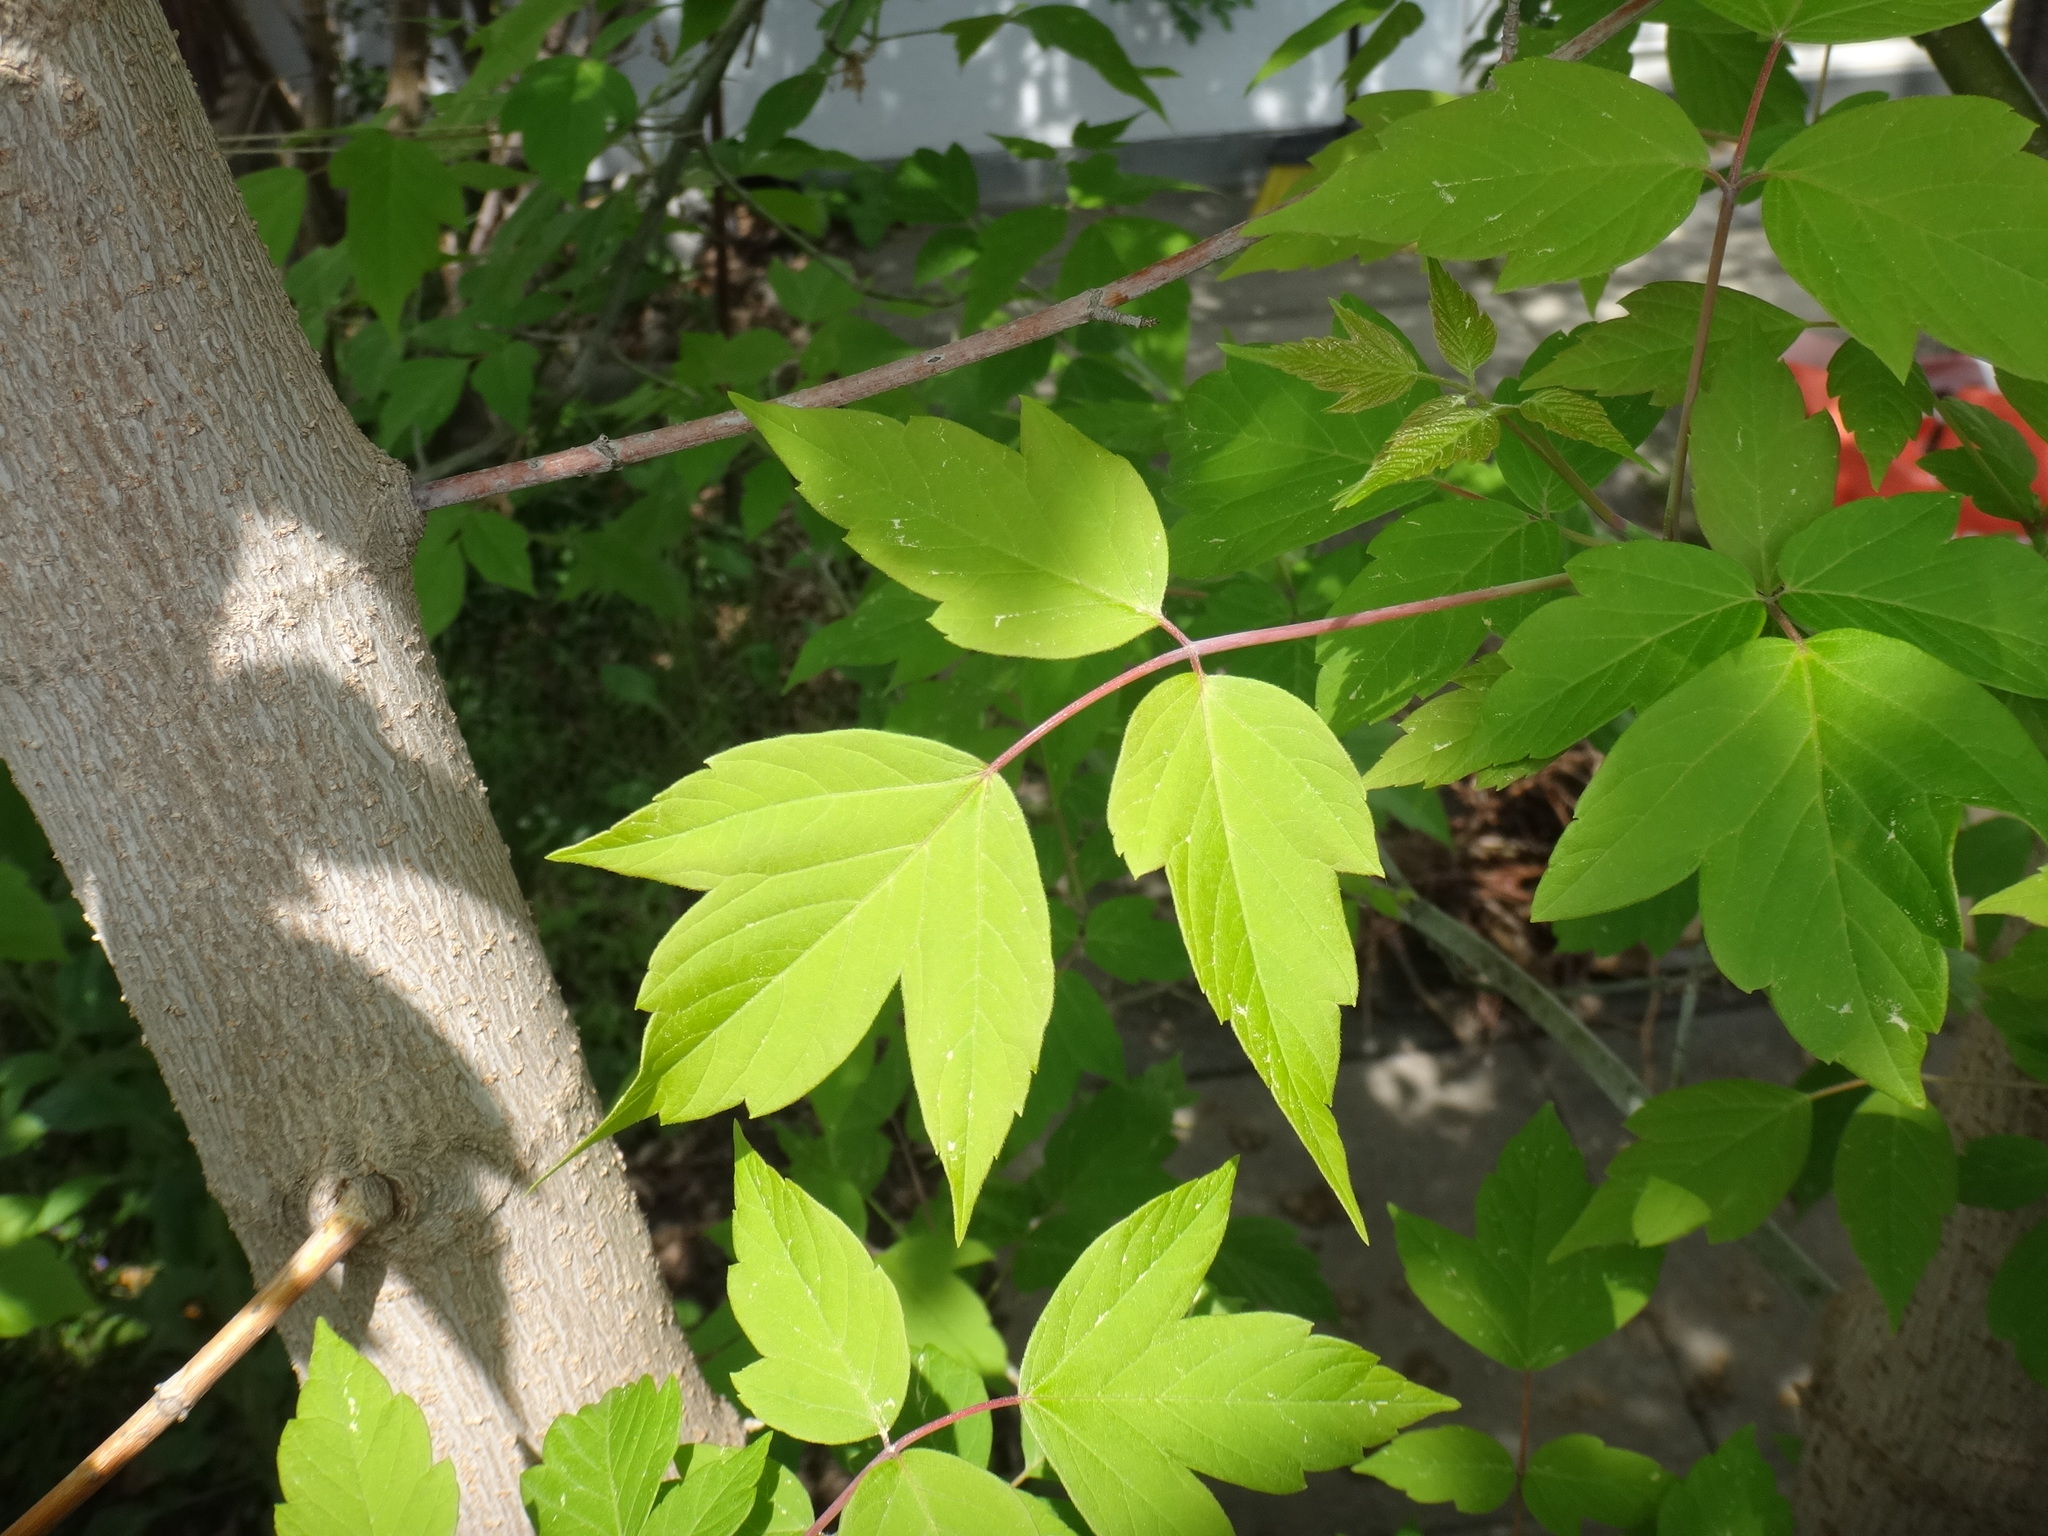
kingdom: Plantae
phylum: Tracheophyta
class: Magnoliopsida
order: Sapindales
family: Sapindaceae
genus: Acer
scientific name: Acer negundo
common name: Ashleaf maple
